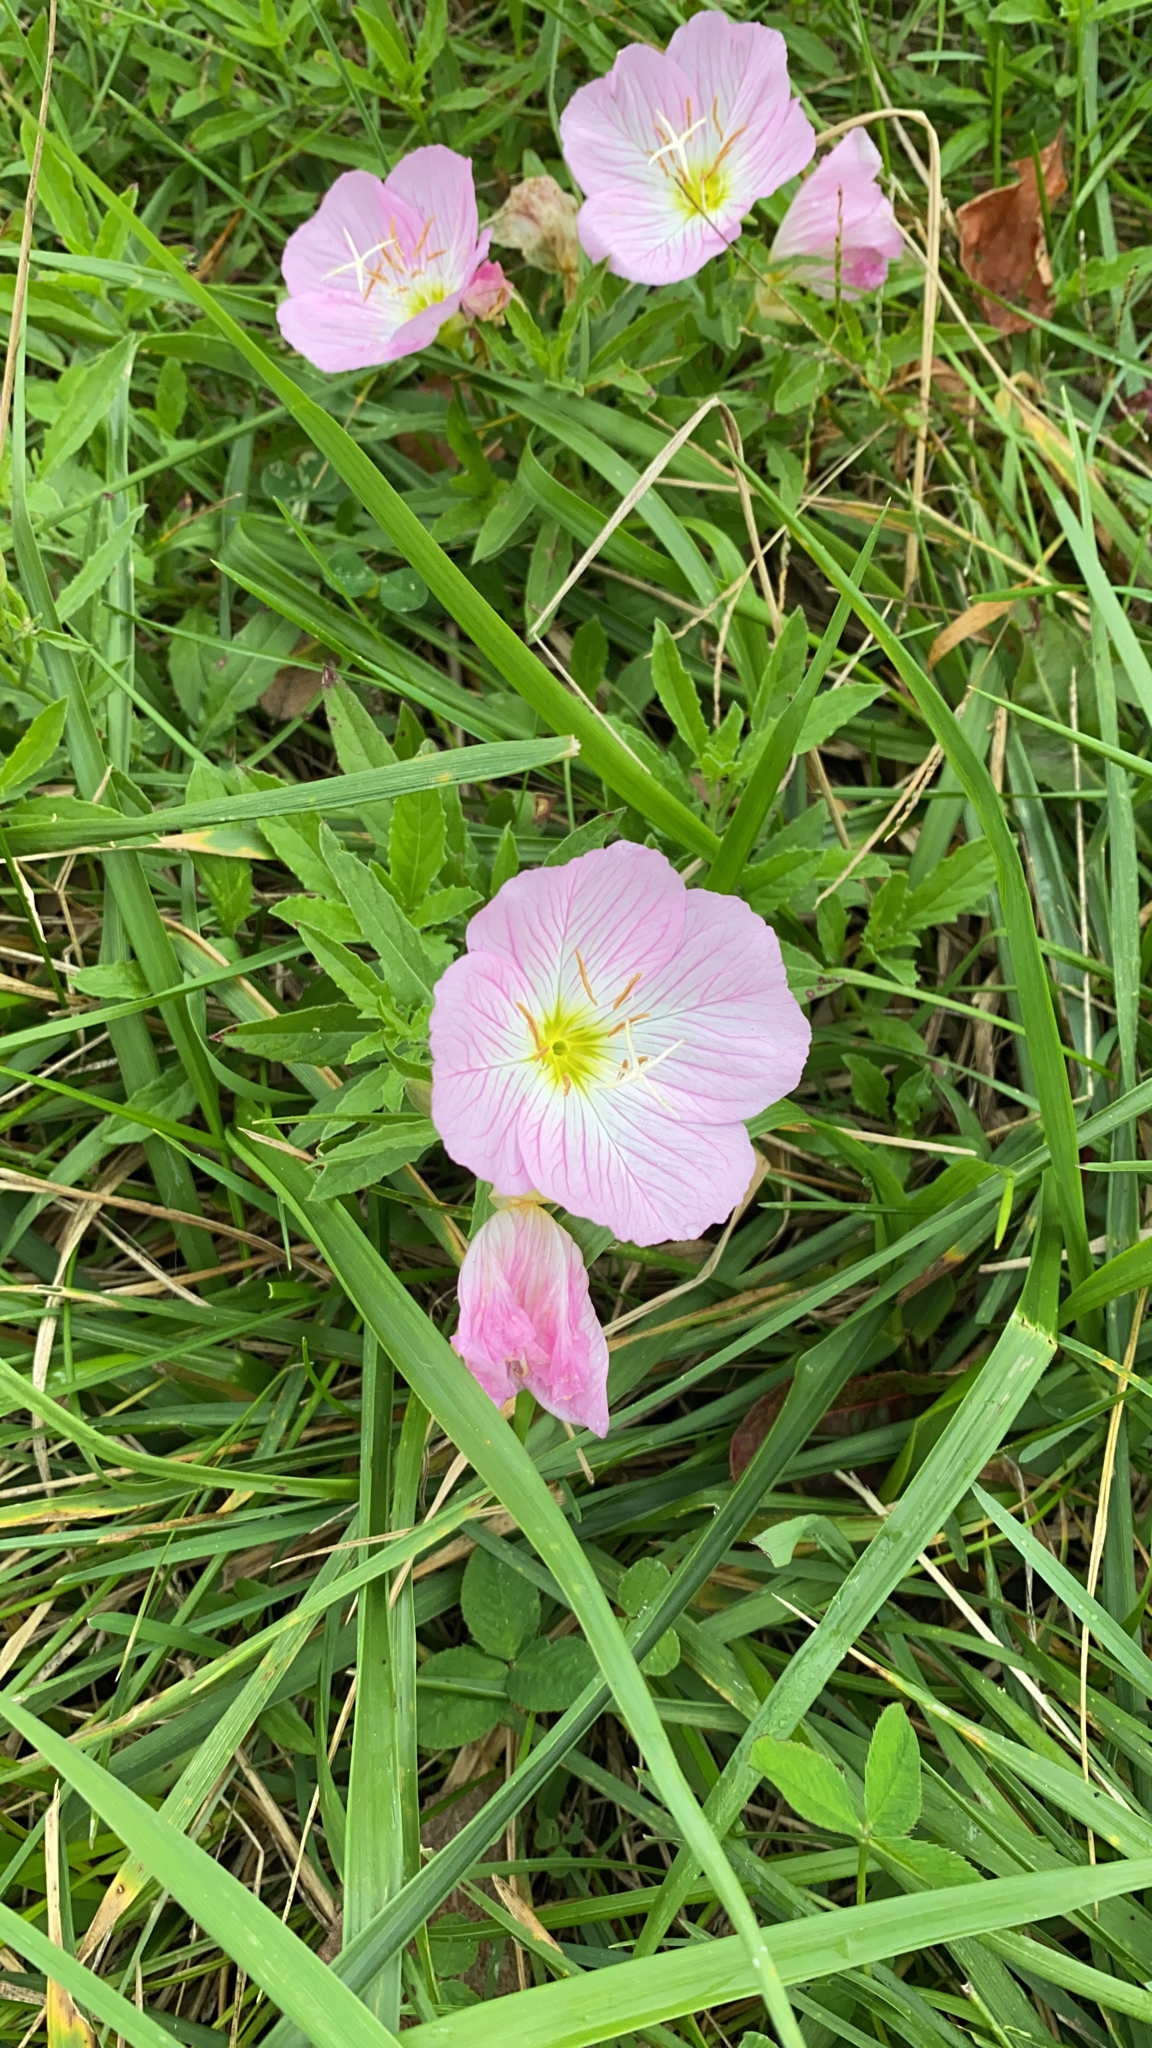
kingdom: Plantae
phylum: Tracheophyta
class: Magnoliopsida
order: Myrtales
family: Onagraceae
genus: Oenothera
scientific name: Oenothera speciosa
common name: White evening-primrose
